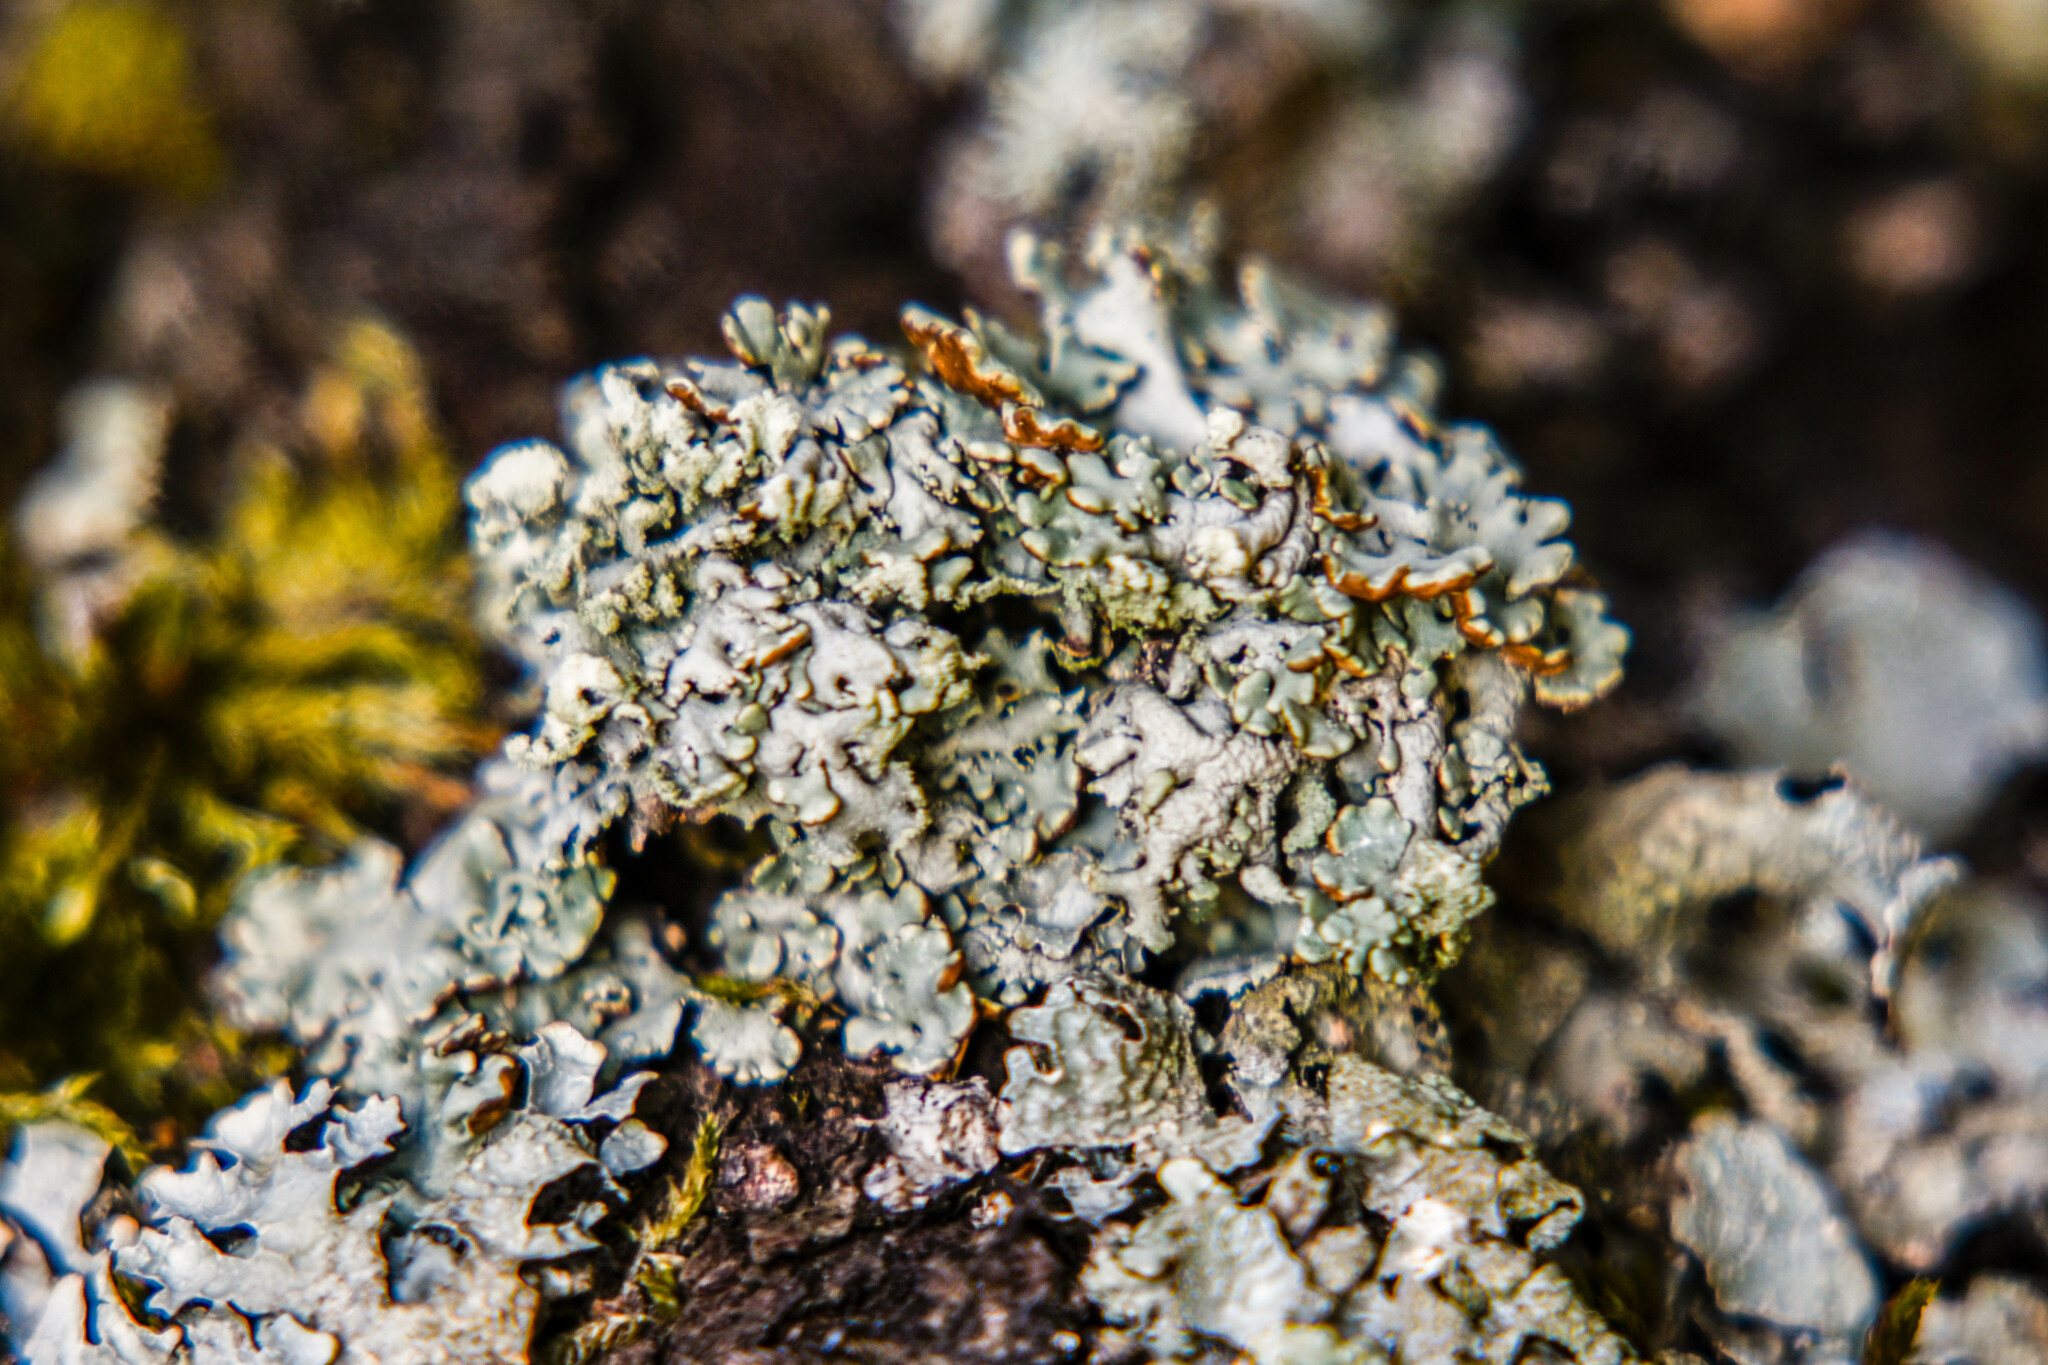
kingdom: Fungi
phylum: Ascomycota
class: Lecanoromycetes
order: Lecanorales
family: Parmeliaceae
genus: Hypogymnia
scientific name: Hypogymnia physodes
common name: Dark crottle
